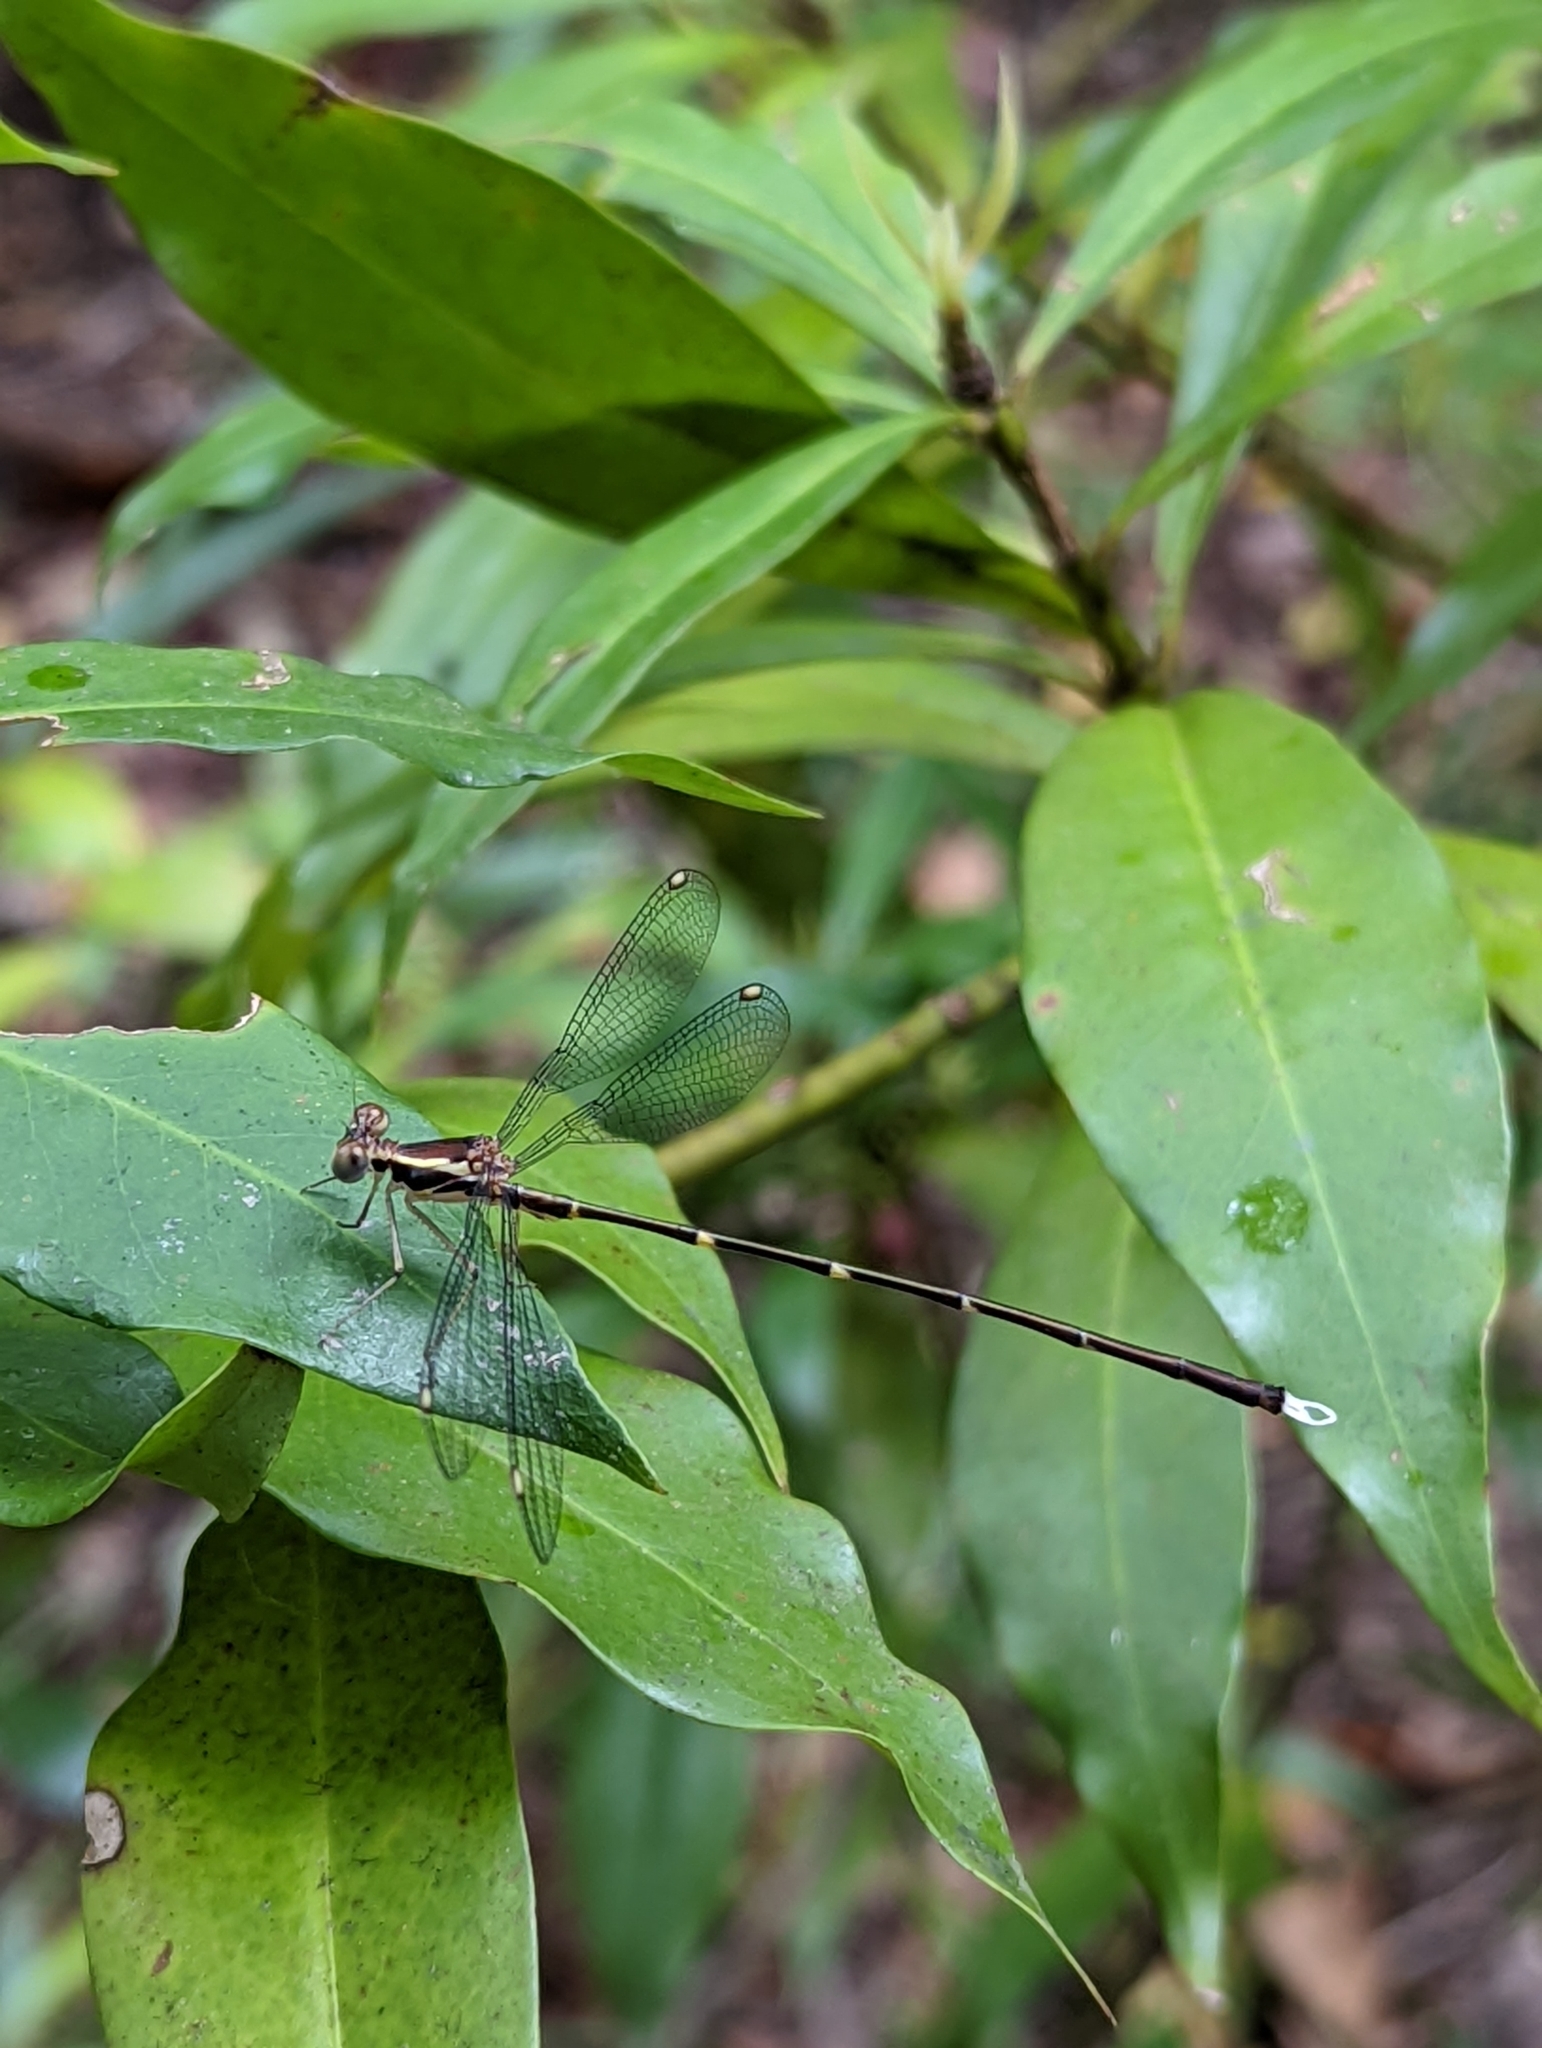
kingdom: Animalia
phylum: Arthropoda
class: Insecta
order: Odonata
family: Synlestidae
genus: Episynlestes
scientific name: Episynlestes albicaudus
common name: Southern whitetip
